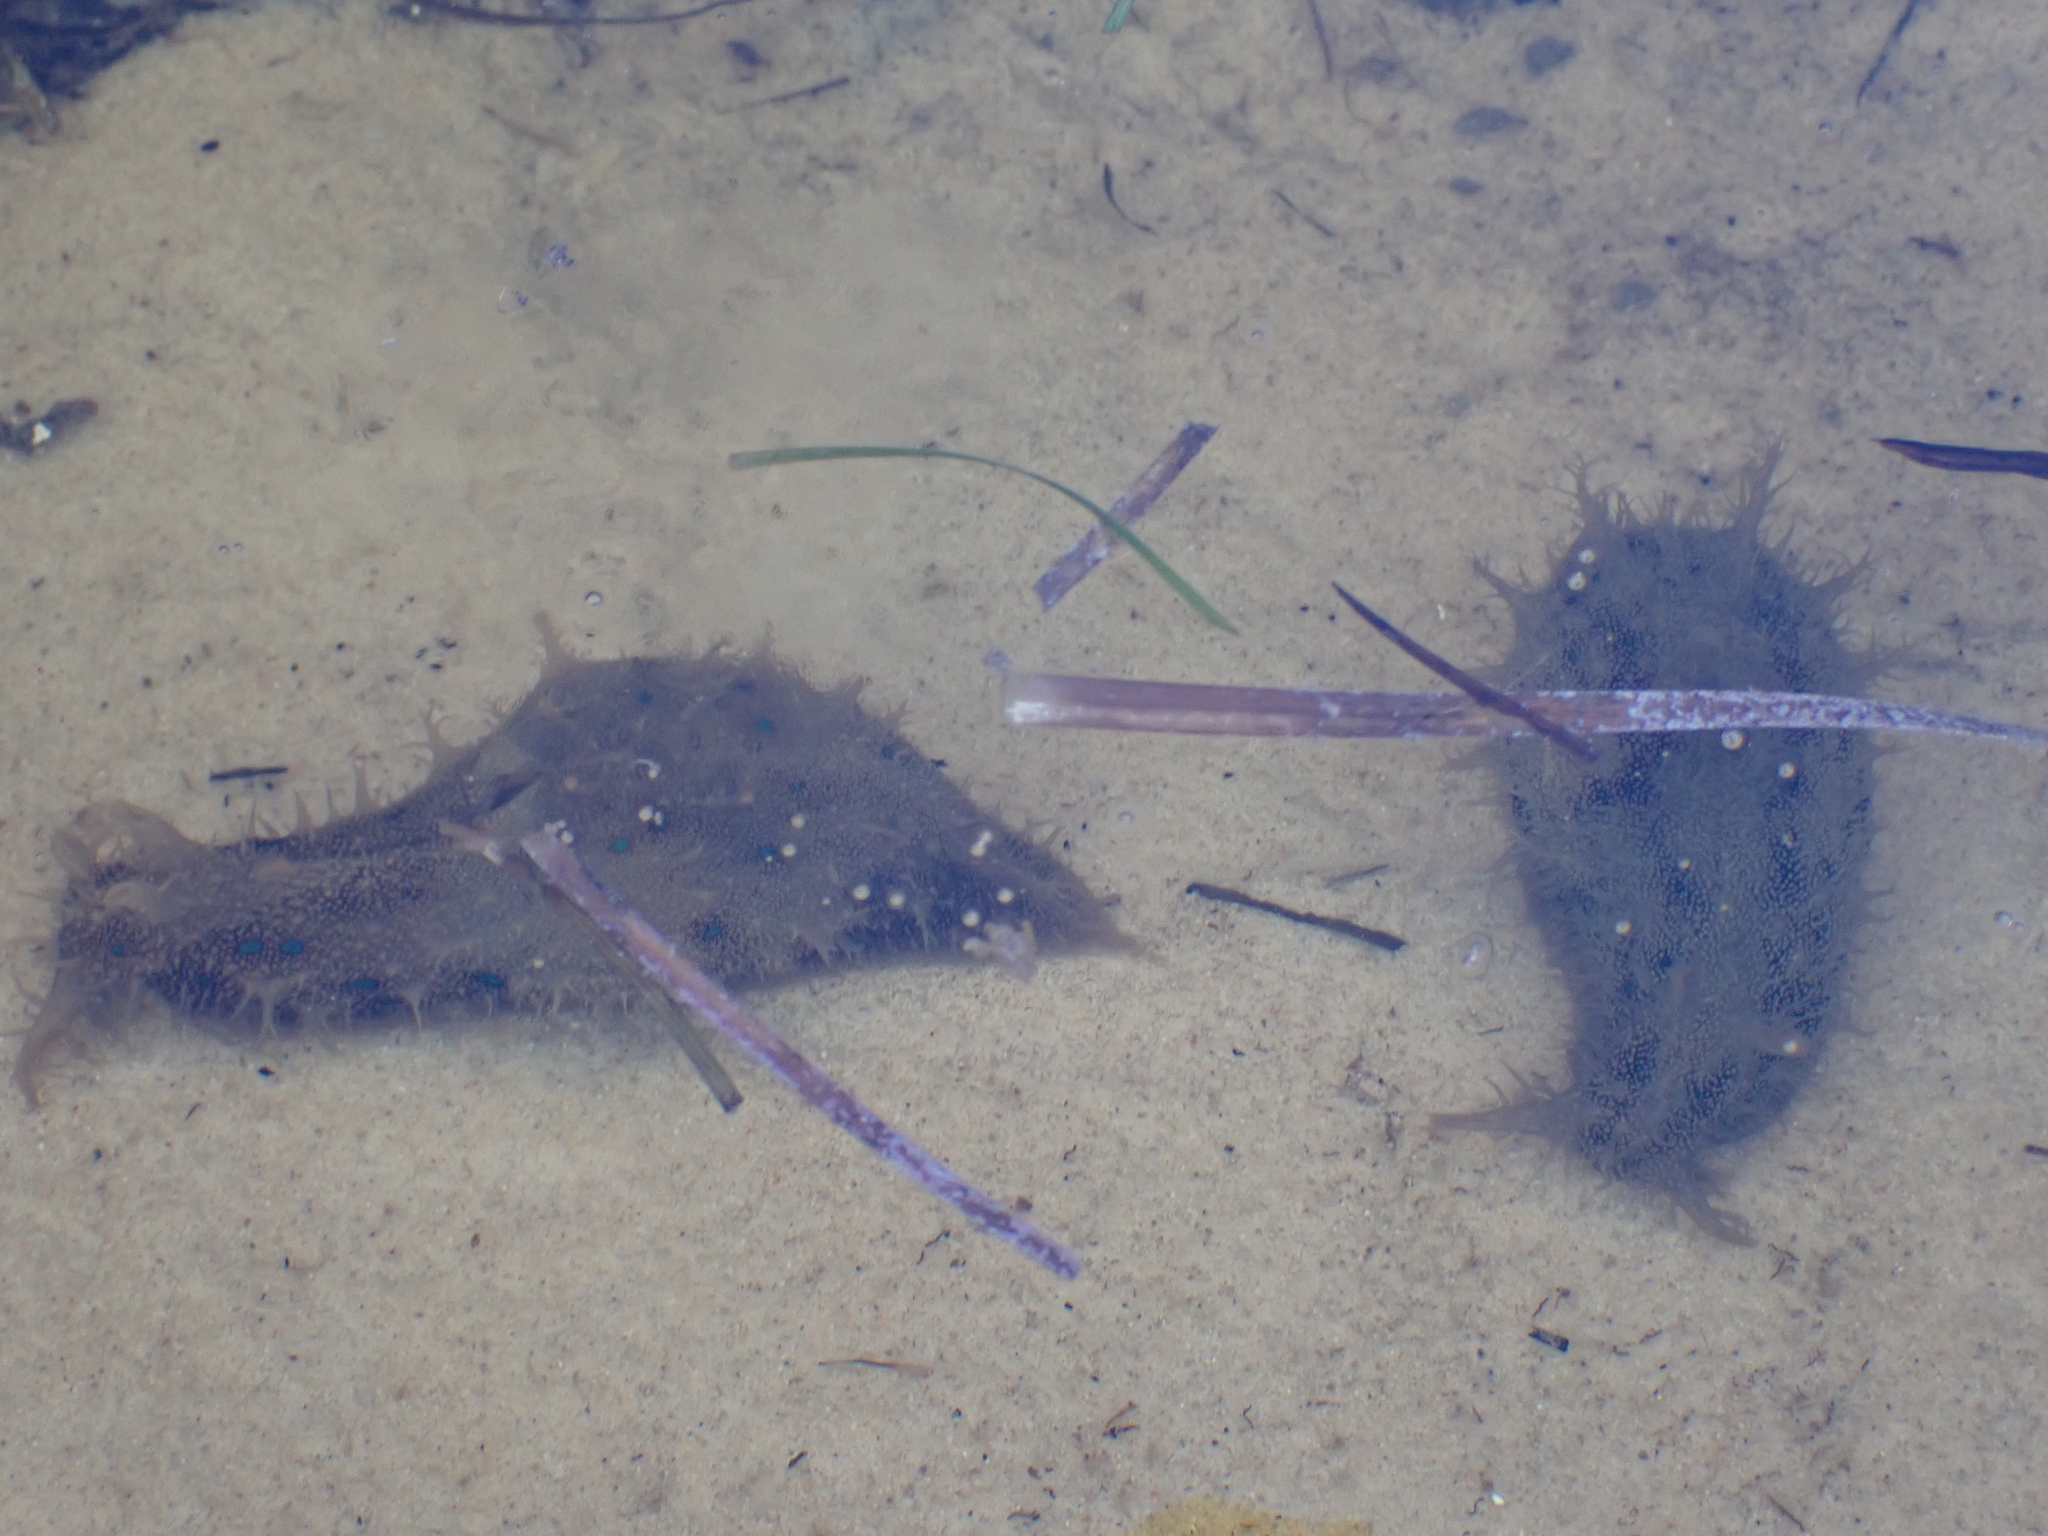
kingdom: Animalia
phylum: Mollusca
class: Gastropoda
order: Aplysiida
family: Aplysiidae
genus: Bursatella
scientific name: Bursatella leachii
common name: Shaggy sea hare
